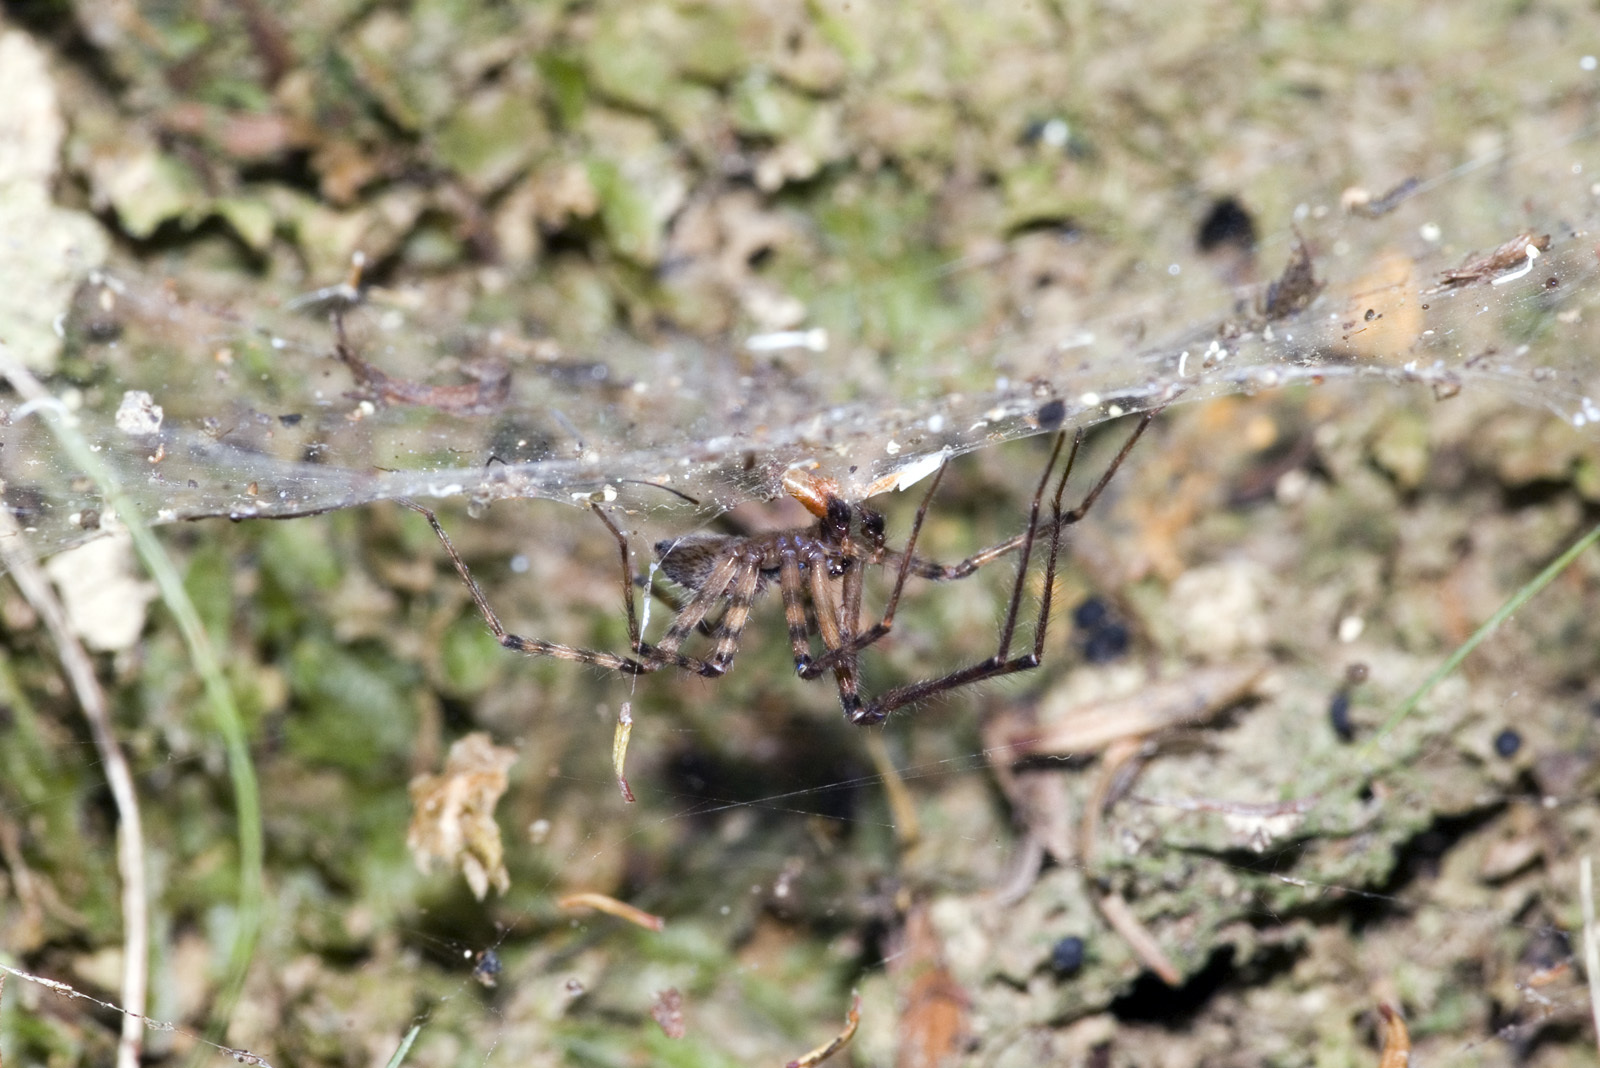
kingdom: Animalia
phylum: Arthropoda
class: Arachnida
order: Araneae
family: Stiphidiidae
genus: Stiphidion
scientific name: Stiphidion facetum
